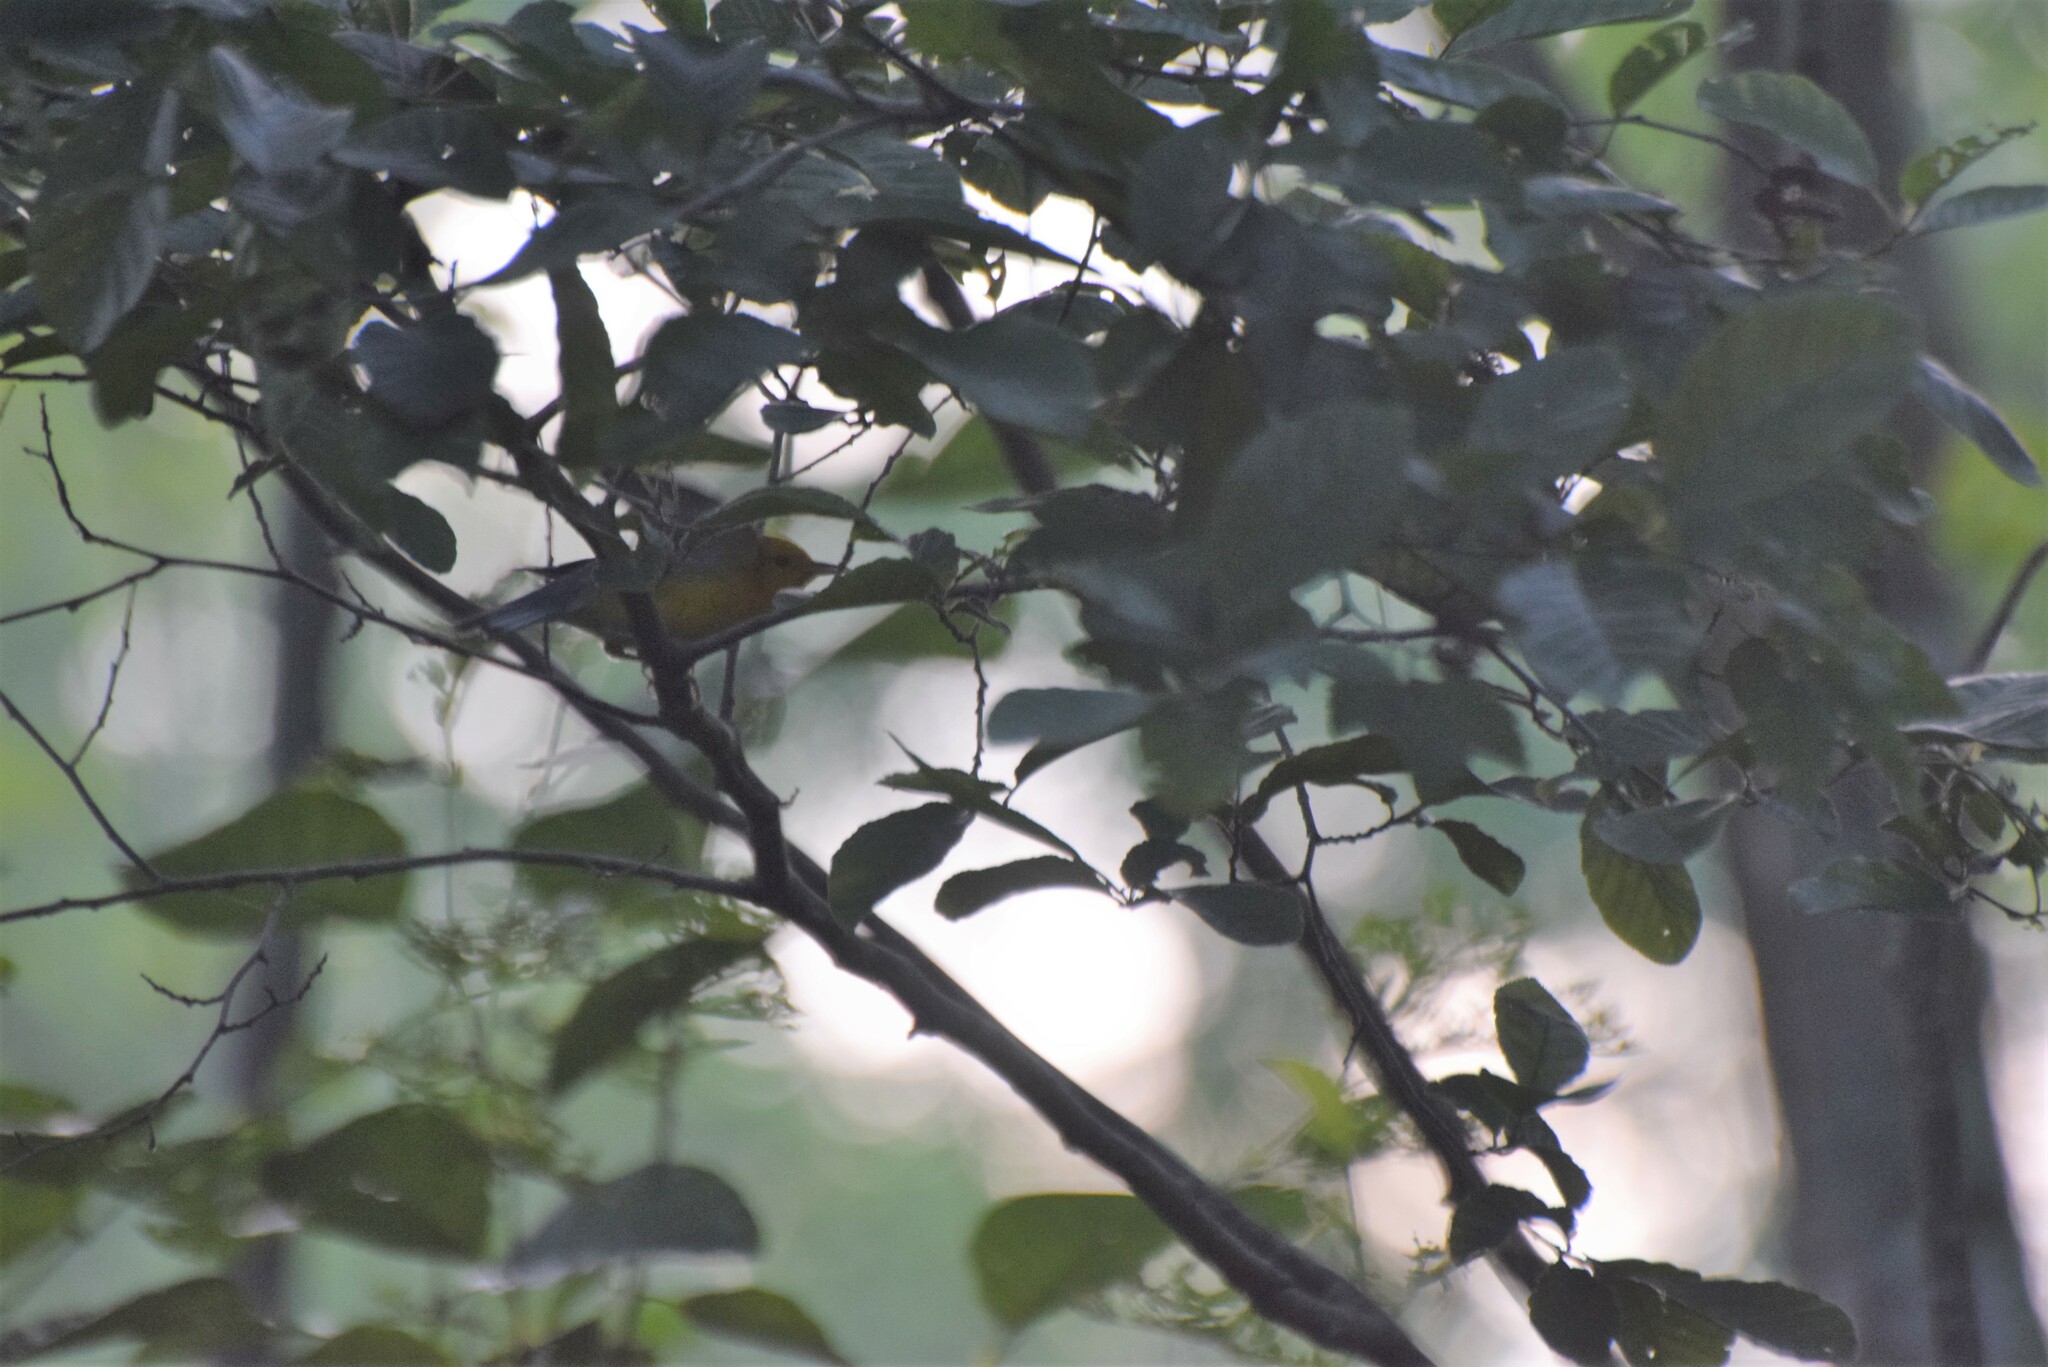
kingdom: Animalia
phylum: Chordata
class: Aves
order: Passeriformes
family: Parulidae
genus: Protonotaria
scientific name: Protonotaria citrea
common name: Prothonotary warbler
